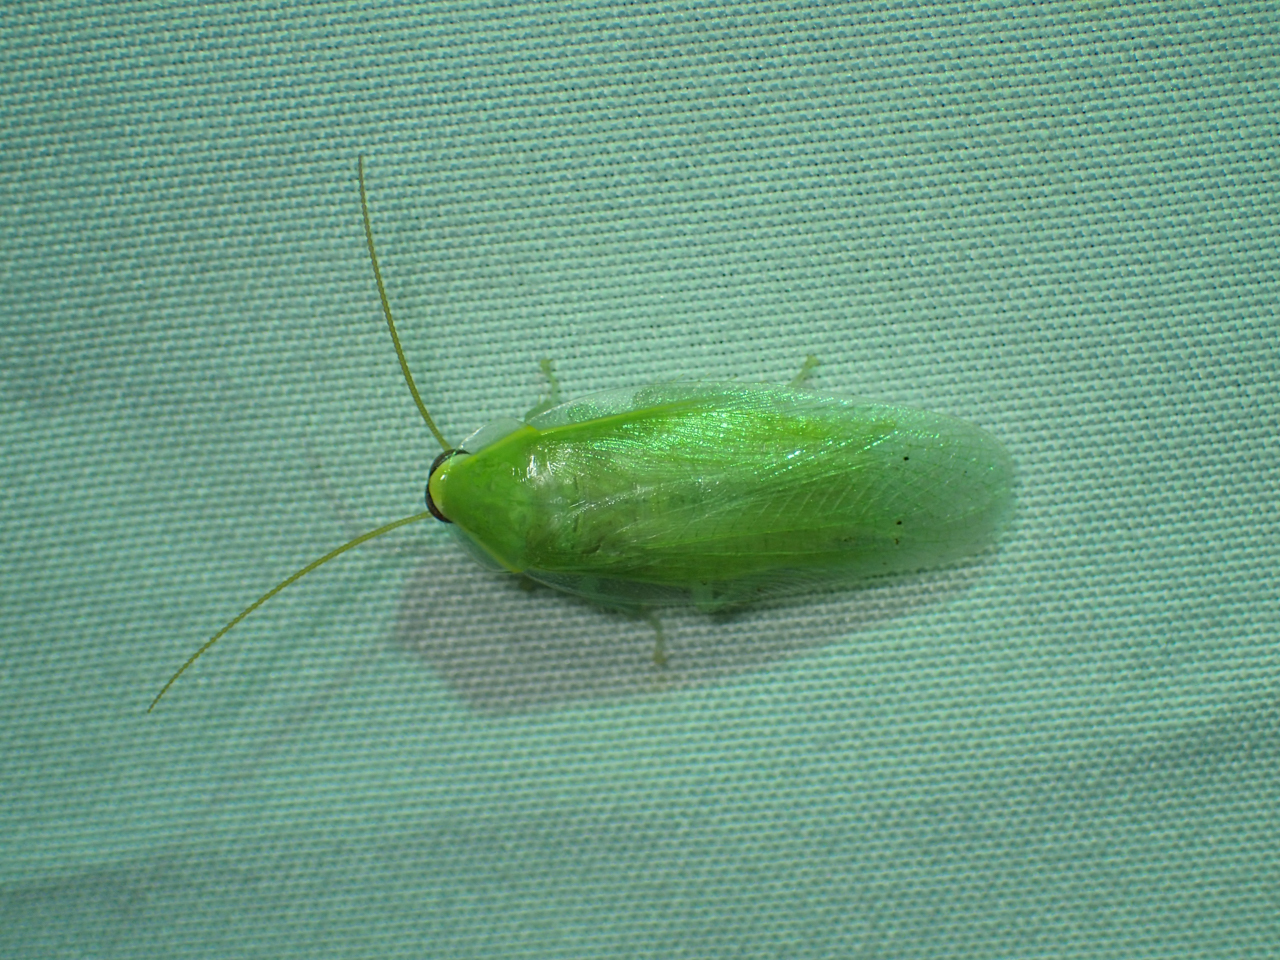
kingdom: Animalia
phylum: Arthropoda
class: Insecta
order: Blattodea
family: Blaberidae
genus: Panchlora
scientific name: Panchlora nivea
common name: Cuban cockroach
